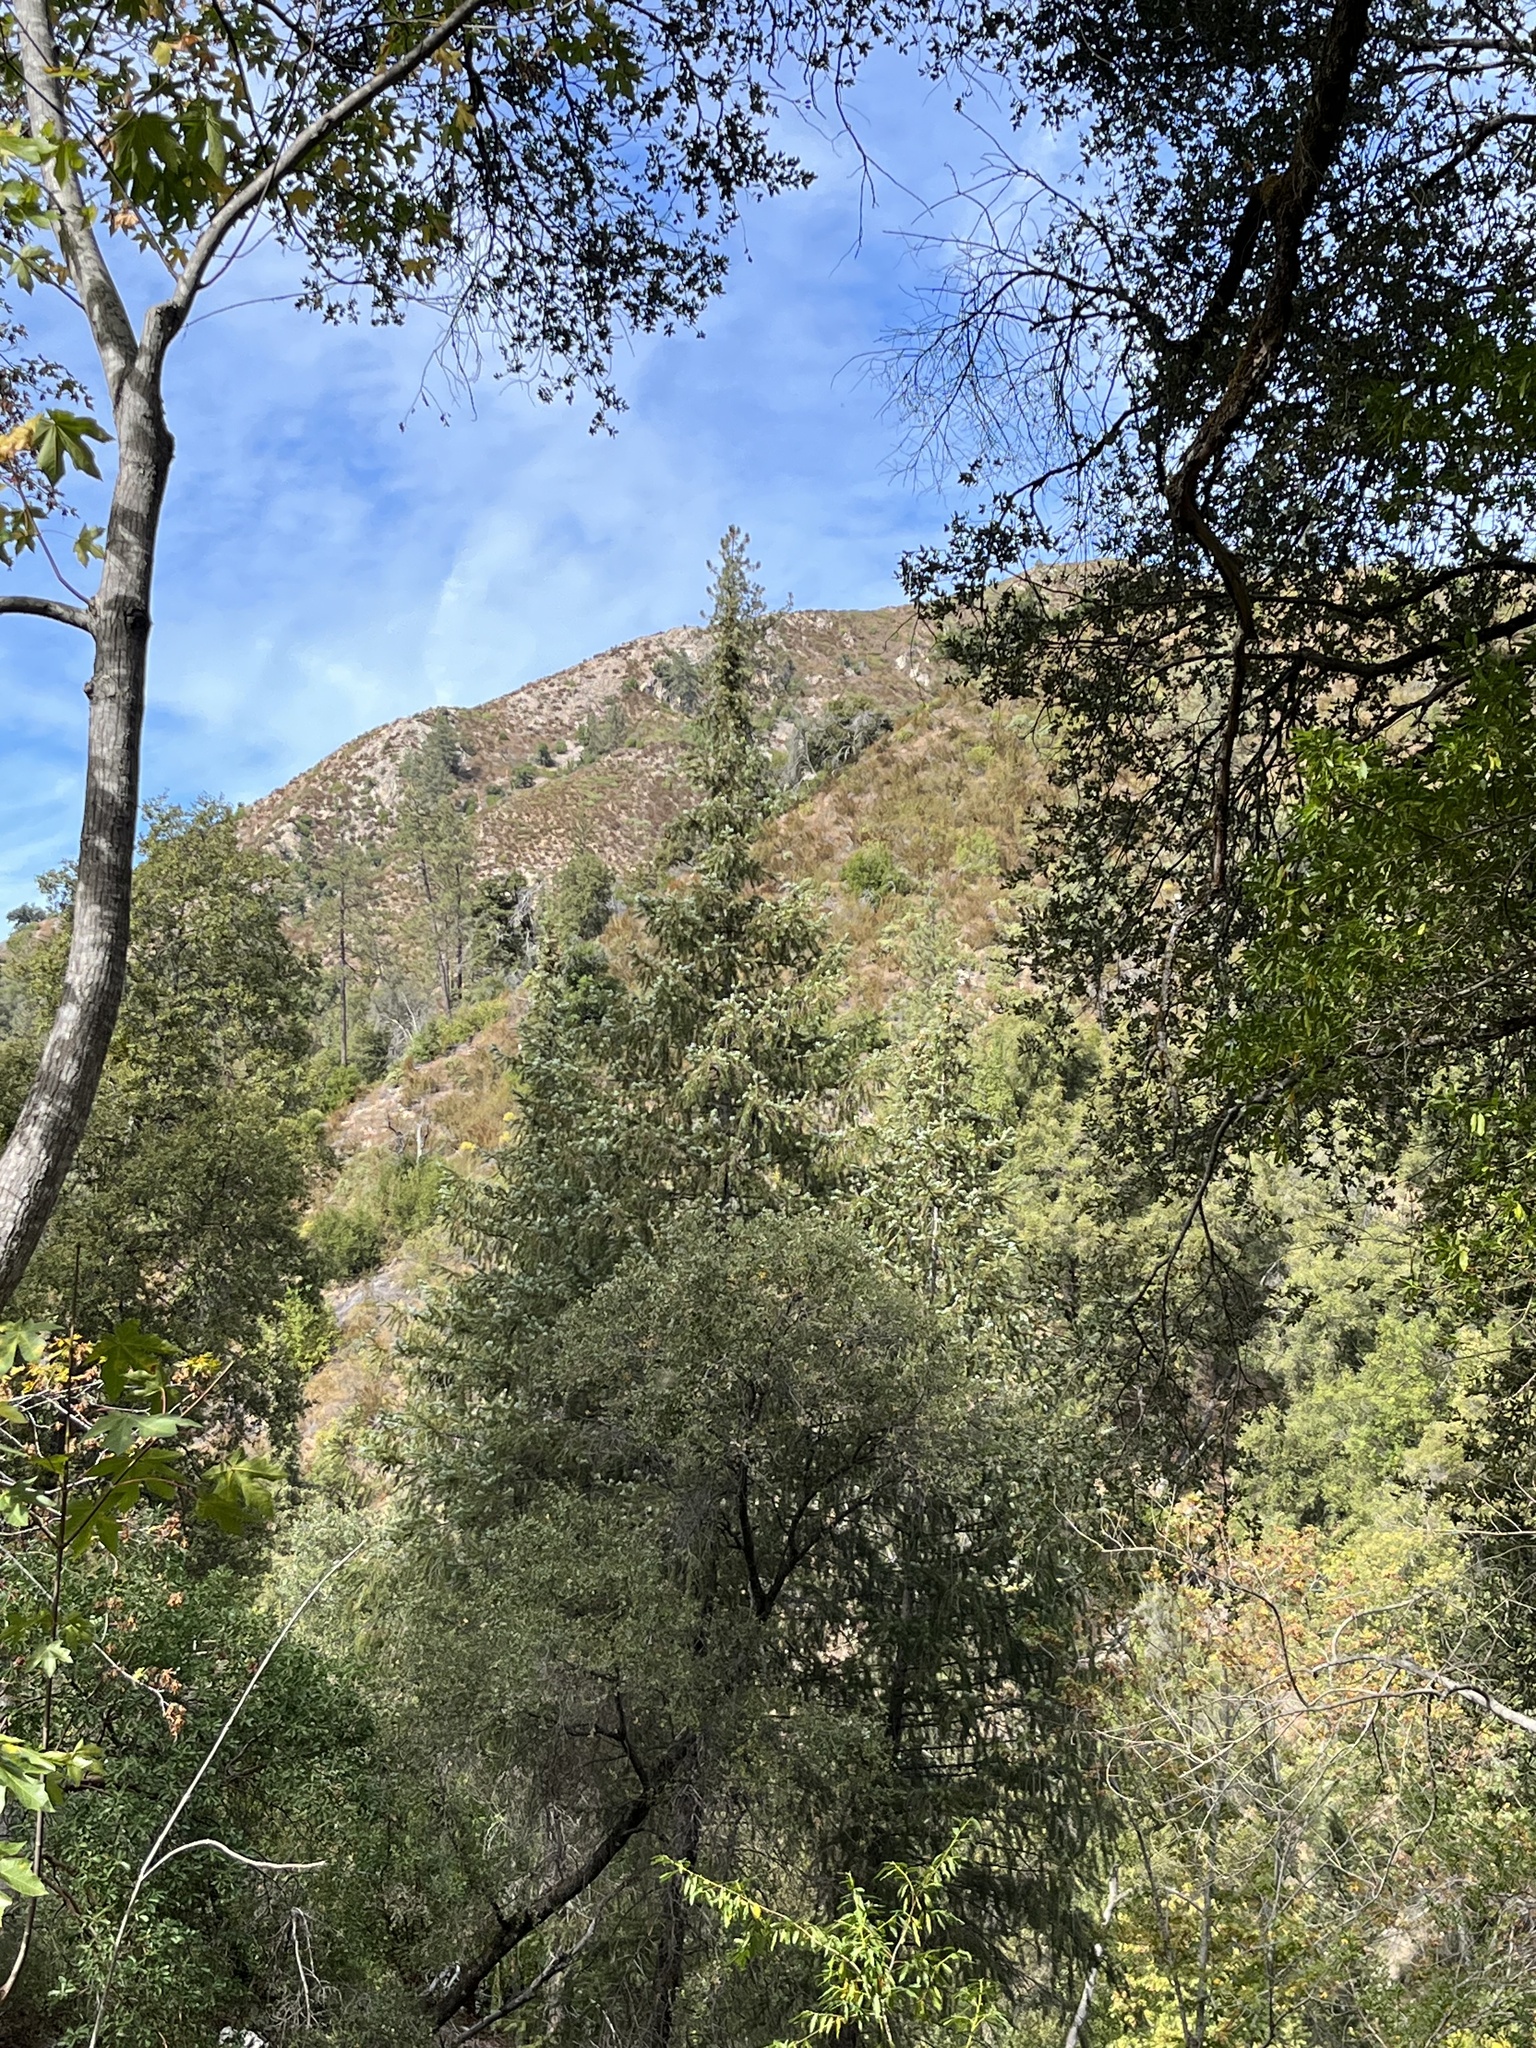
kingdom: Plantae
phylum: Tracheophyta
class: Pinopsida
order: Pinales
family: Pinaceae
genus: Abies
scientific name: Abies bracteata
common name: Bristlecone fir
